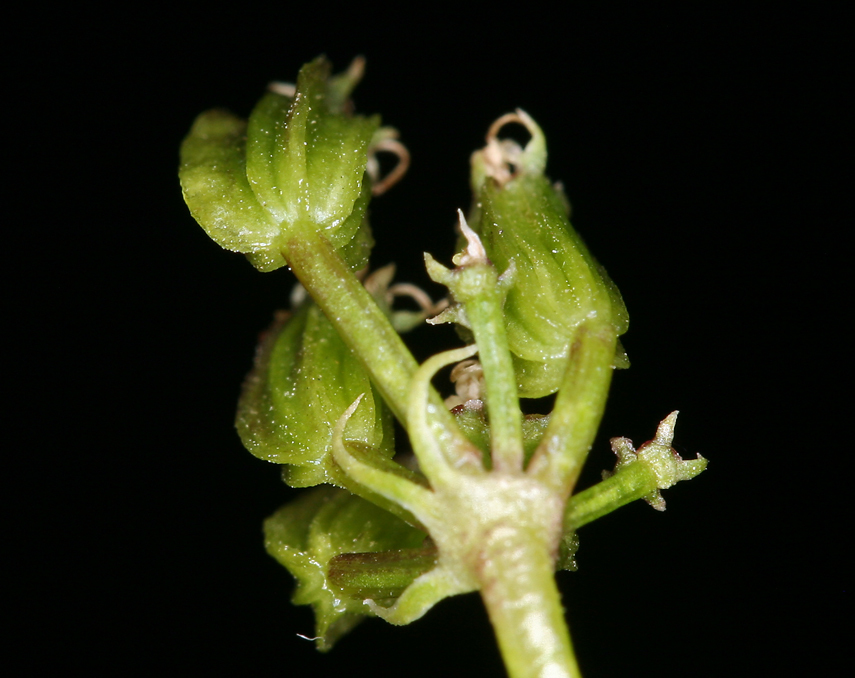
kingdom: Plantae
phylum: Tracheophyta
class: Magnoliopsida
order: Apiales
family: Apiaceae
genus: Pteryxia
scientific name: Pteryxia petraea
